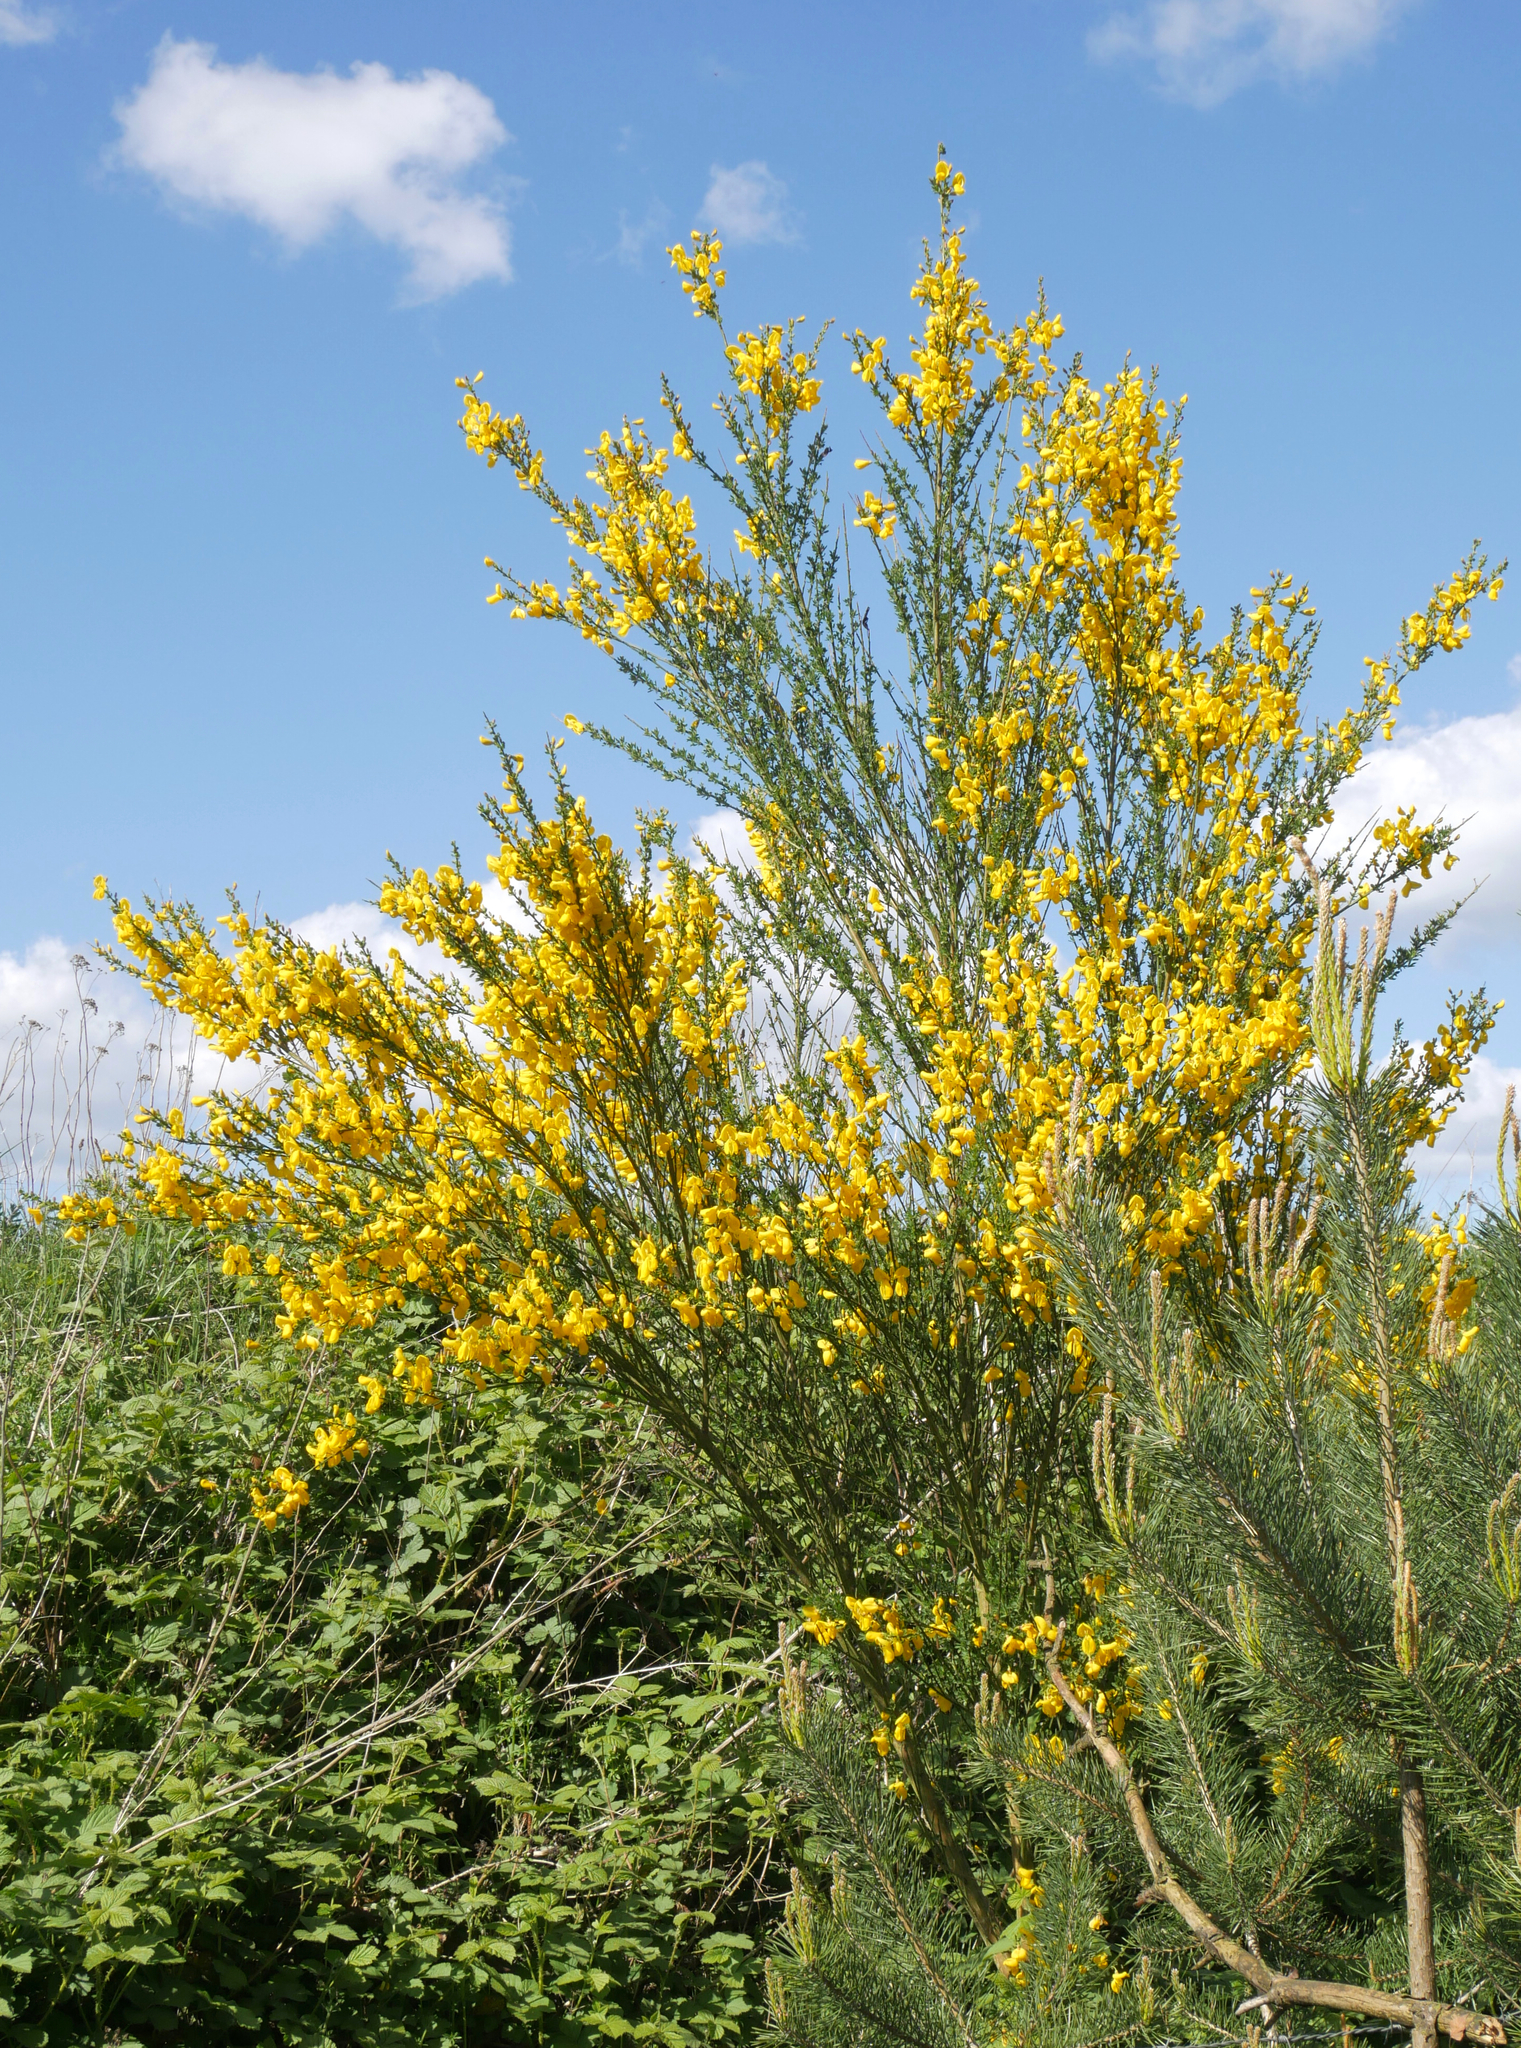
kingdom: Plantae
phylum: Tracheophyta
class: Magnoliopsida
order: Fabales
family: Fabaceae
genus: Cytisus
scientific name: Cytisus scoparius
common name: Scotch broom
